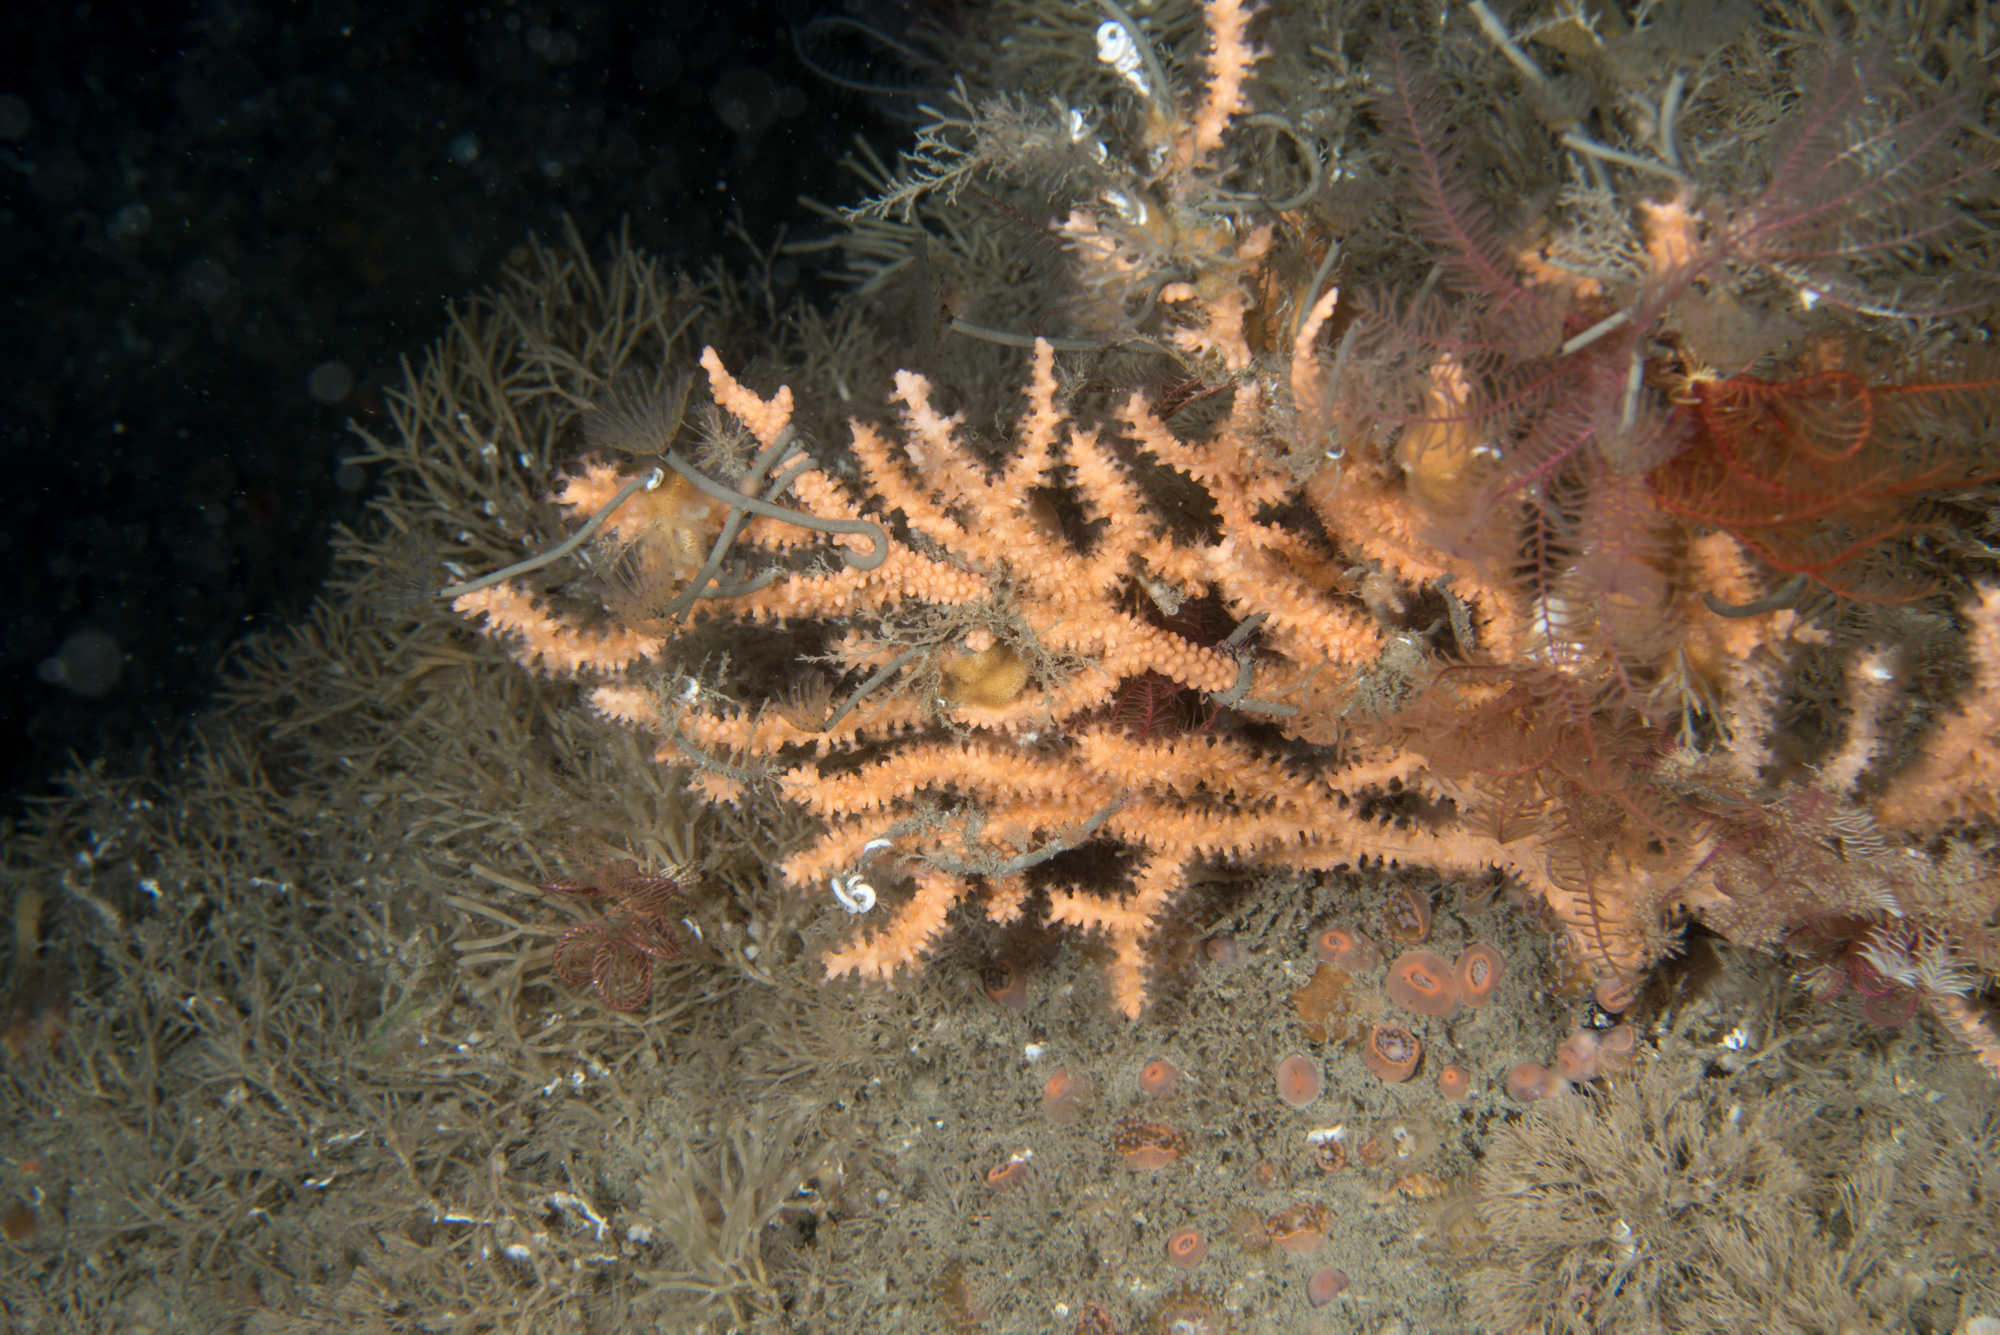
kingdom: Animalia
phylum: Annelida
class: Polychaeta
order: Sabellida
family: Sabellidae
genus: Sabella
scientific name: Sabella discifera
